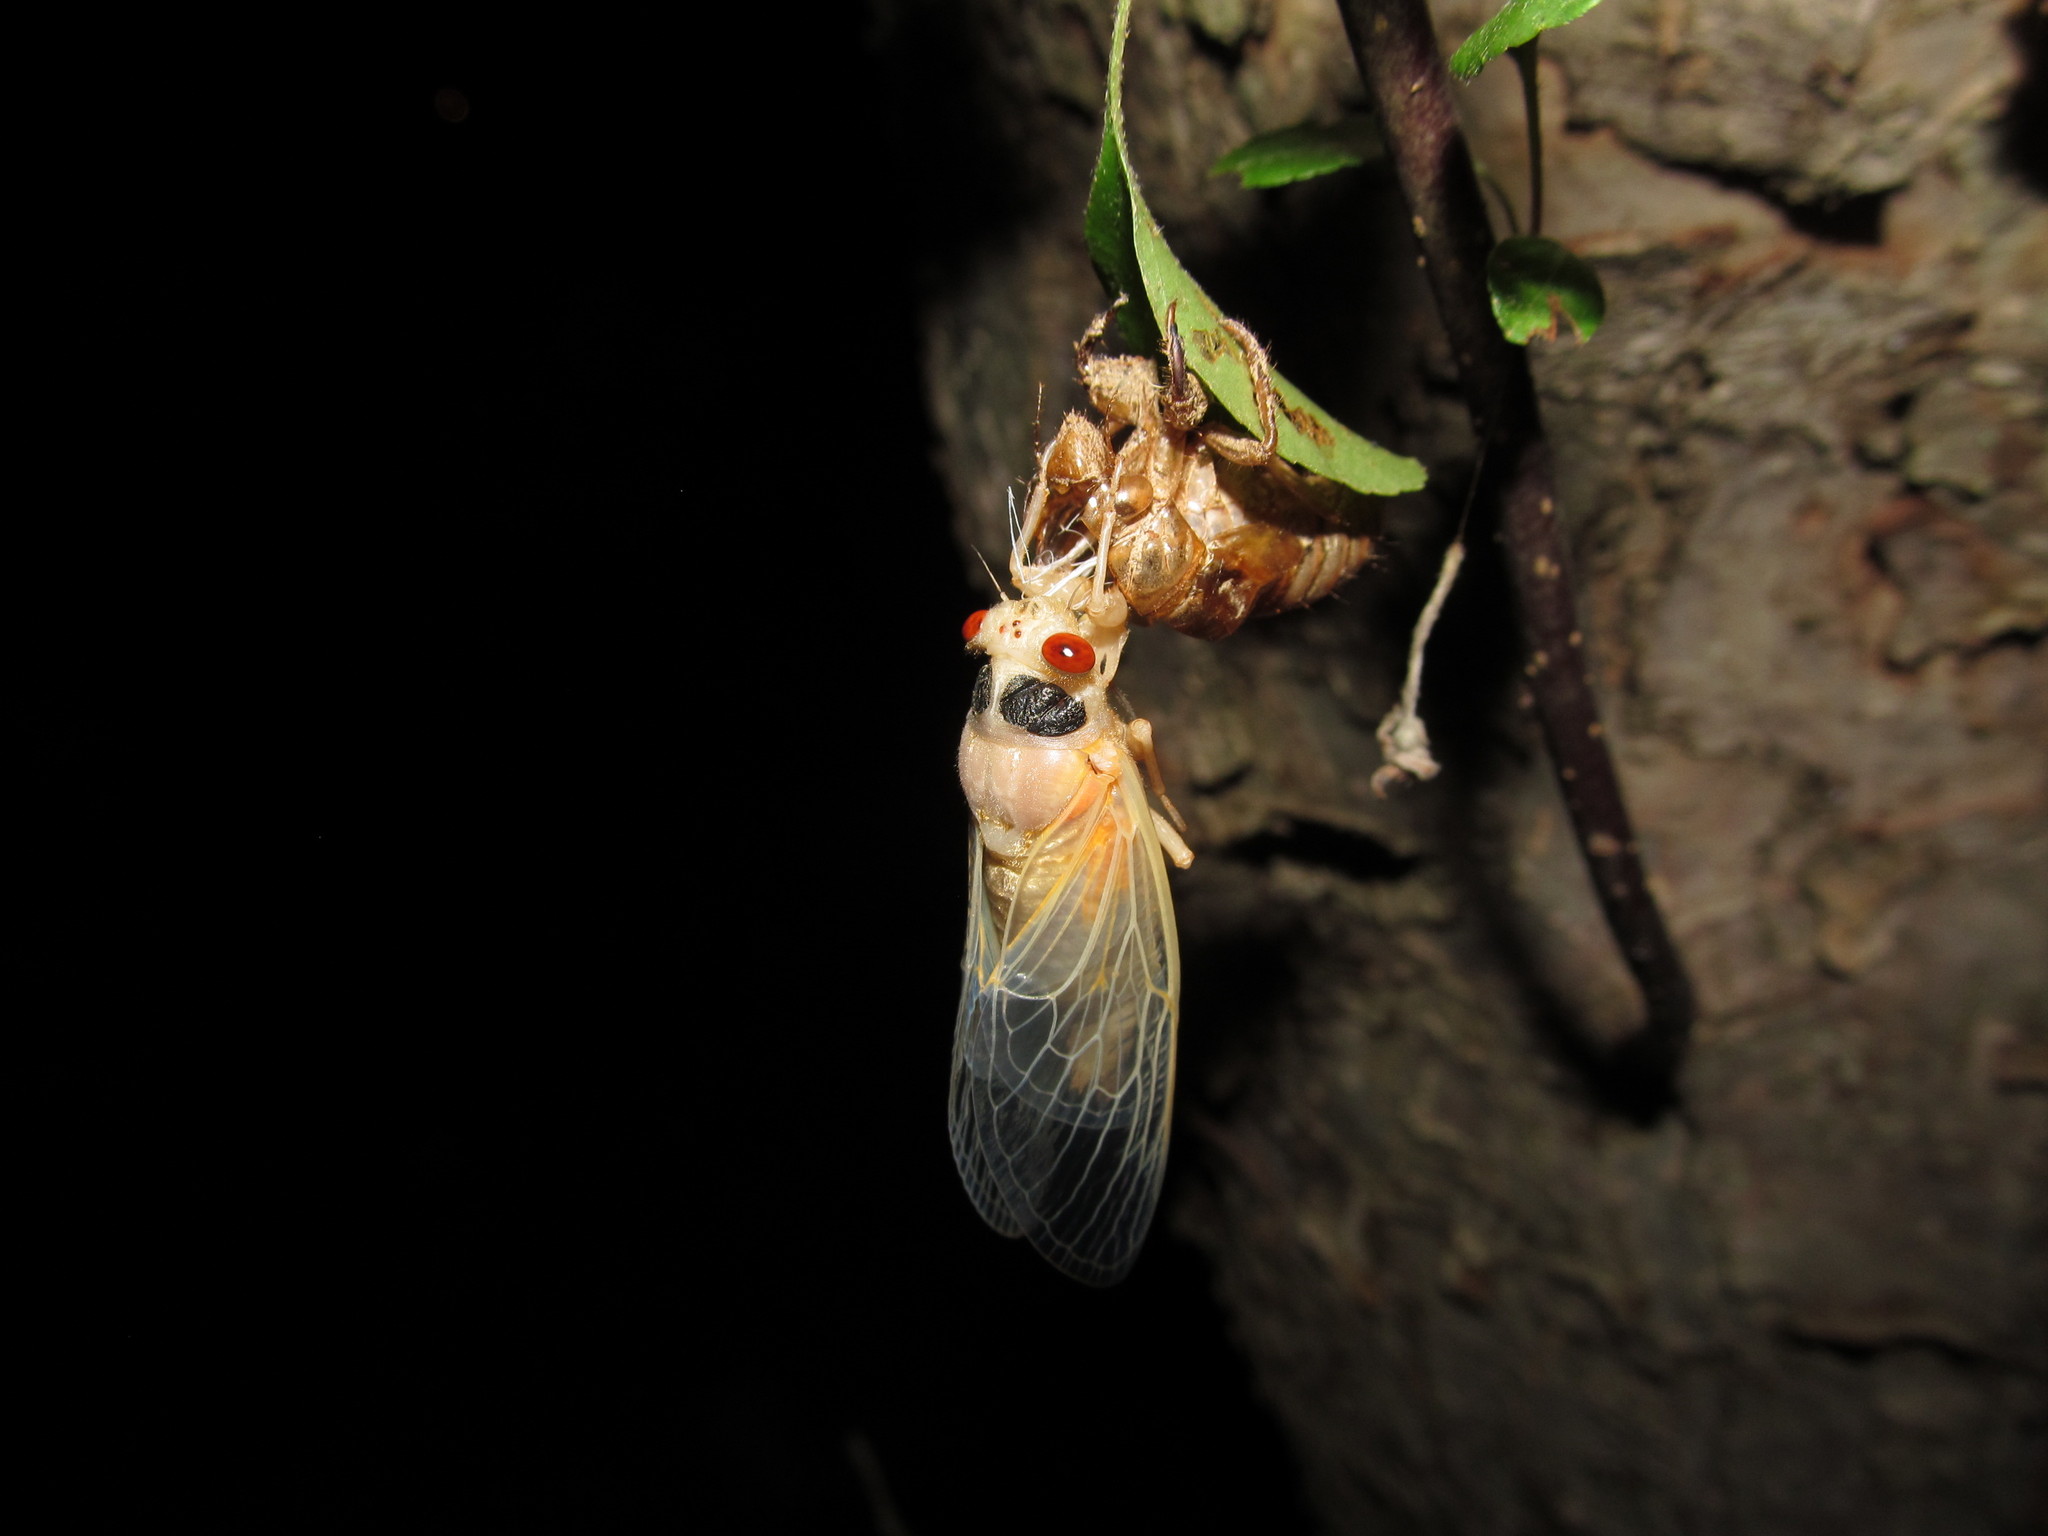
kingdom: Animalia
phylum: Arthropoda
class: Insecta
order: Hemiptera
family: Cicadidae
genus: Magicicada
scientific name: Magicicada
